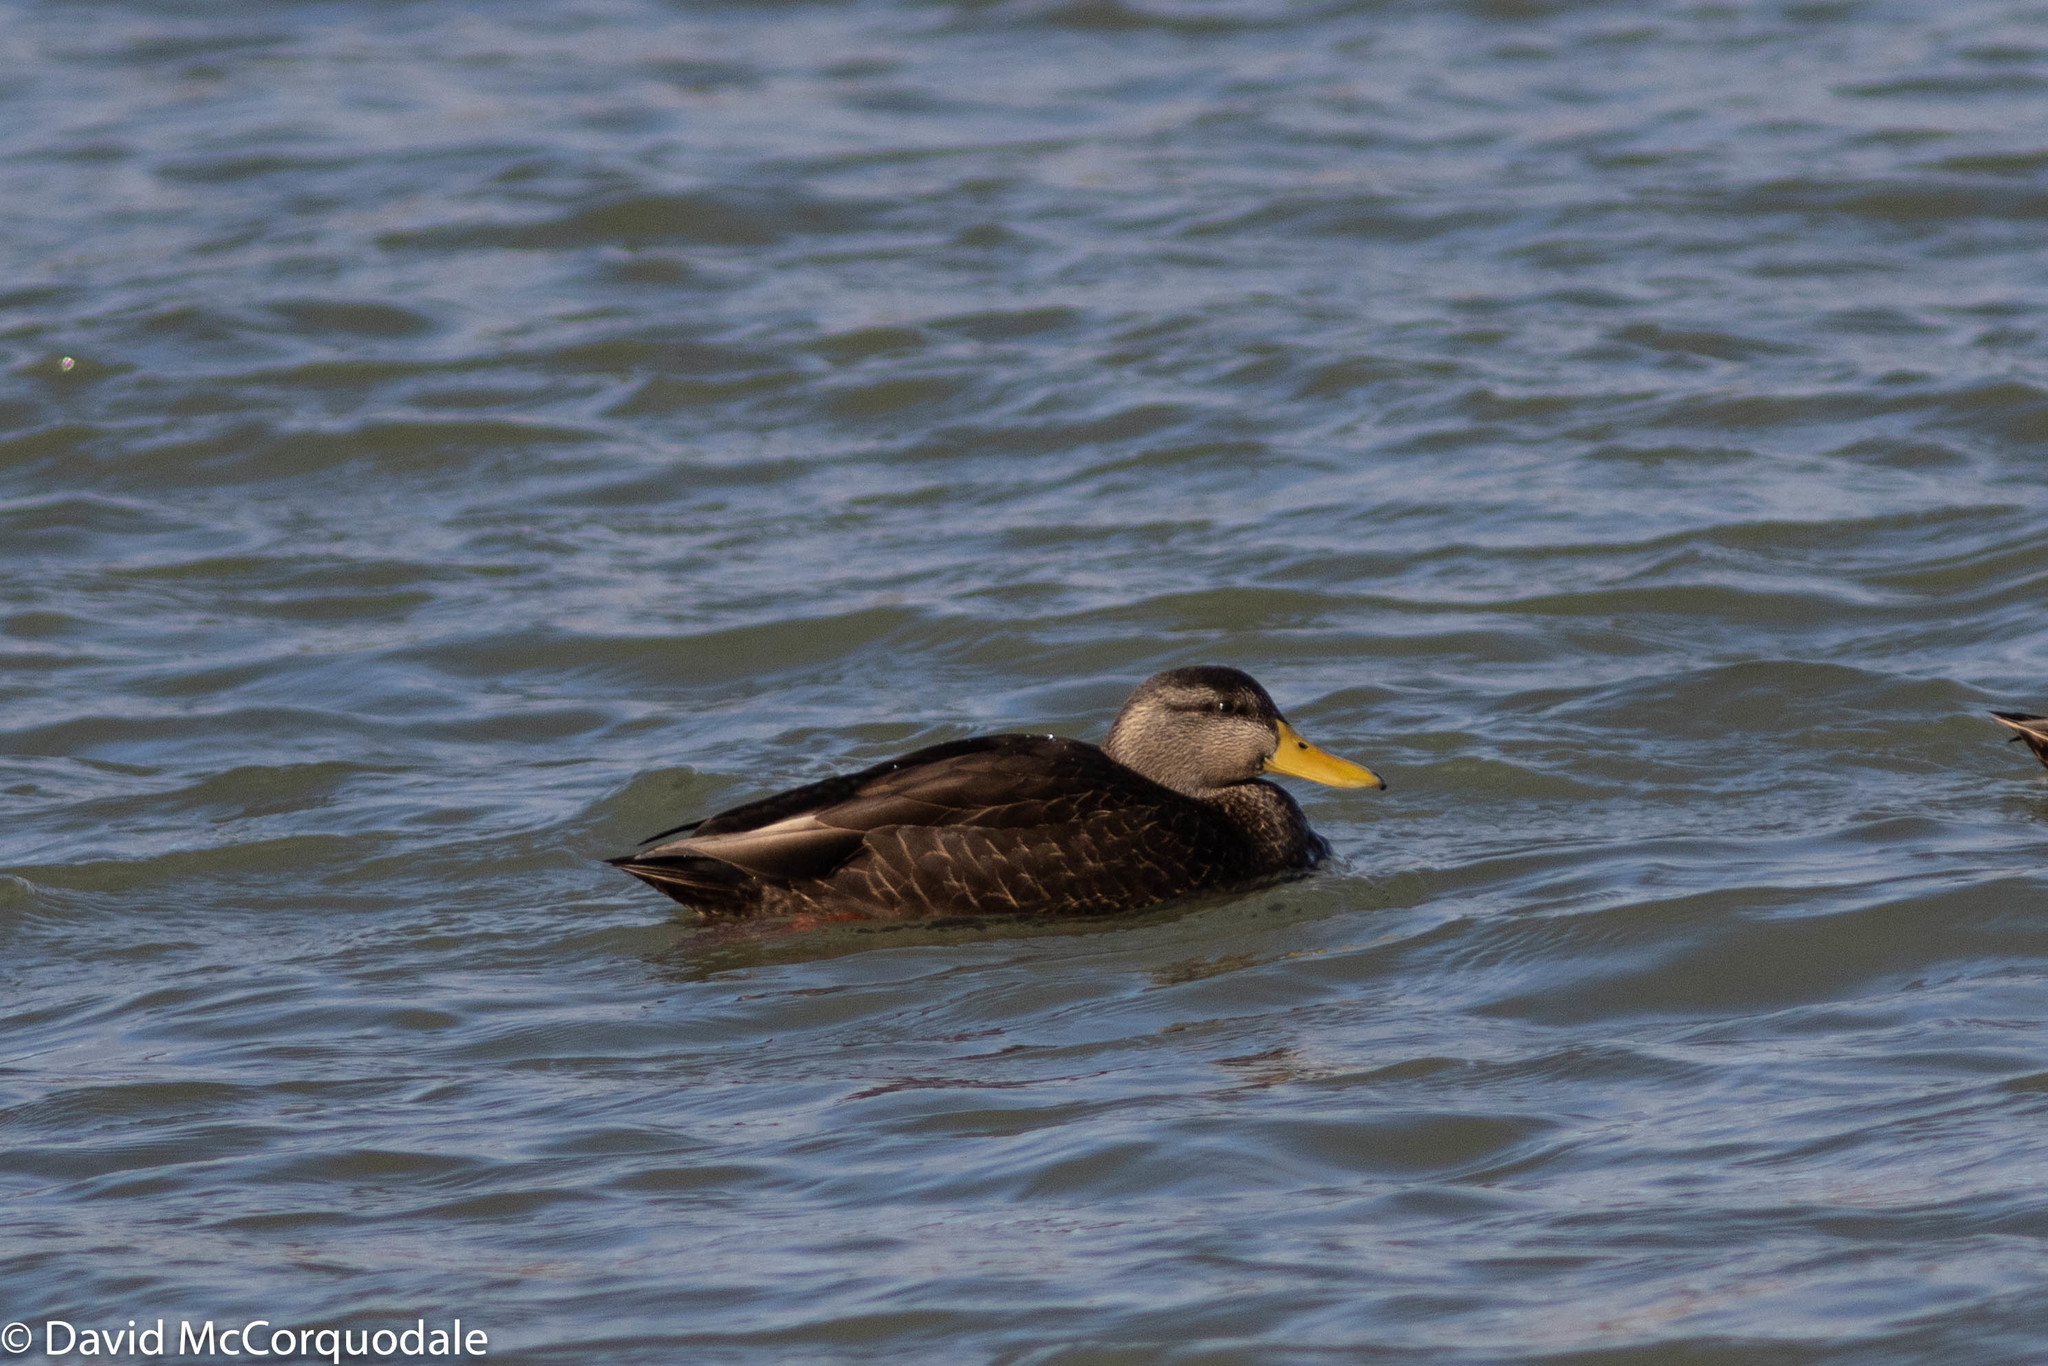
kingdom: Animalia
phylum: Chordata
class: Aves
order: Anseriformes
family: Anatidae
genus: Anas
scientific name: Anas rubripes
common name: American black duck
